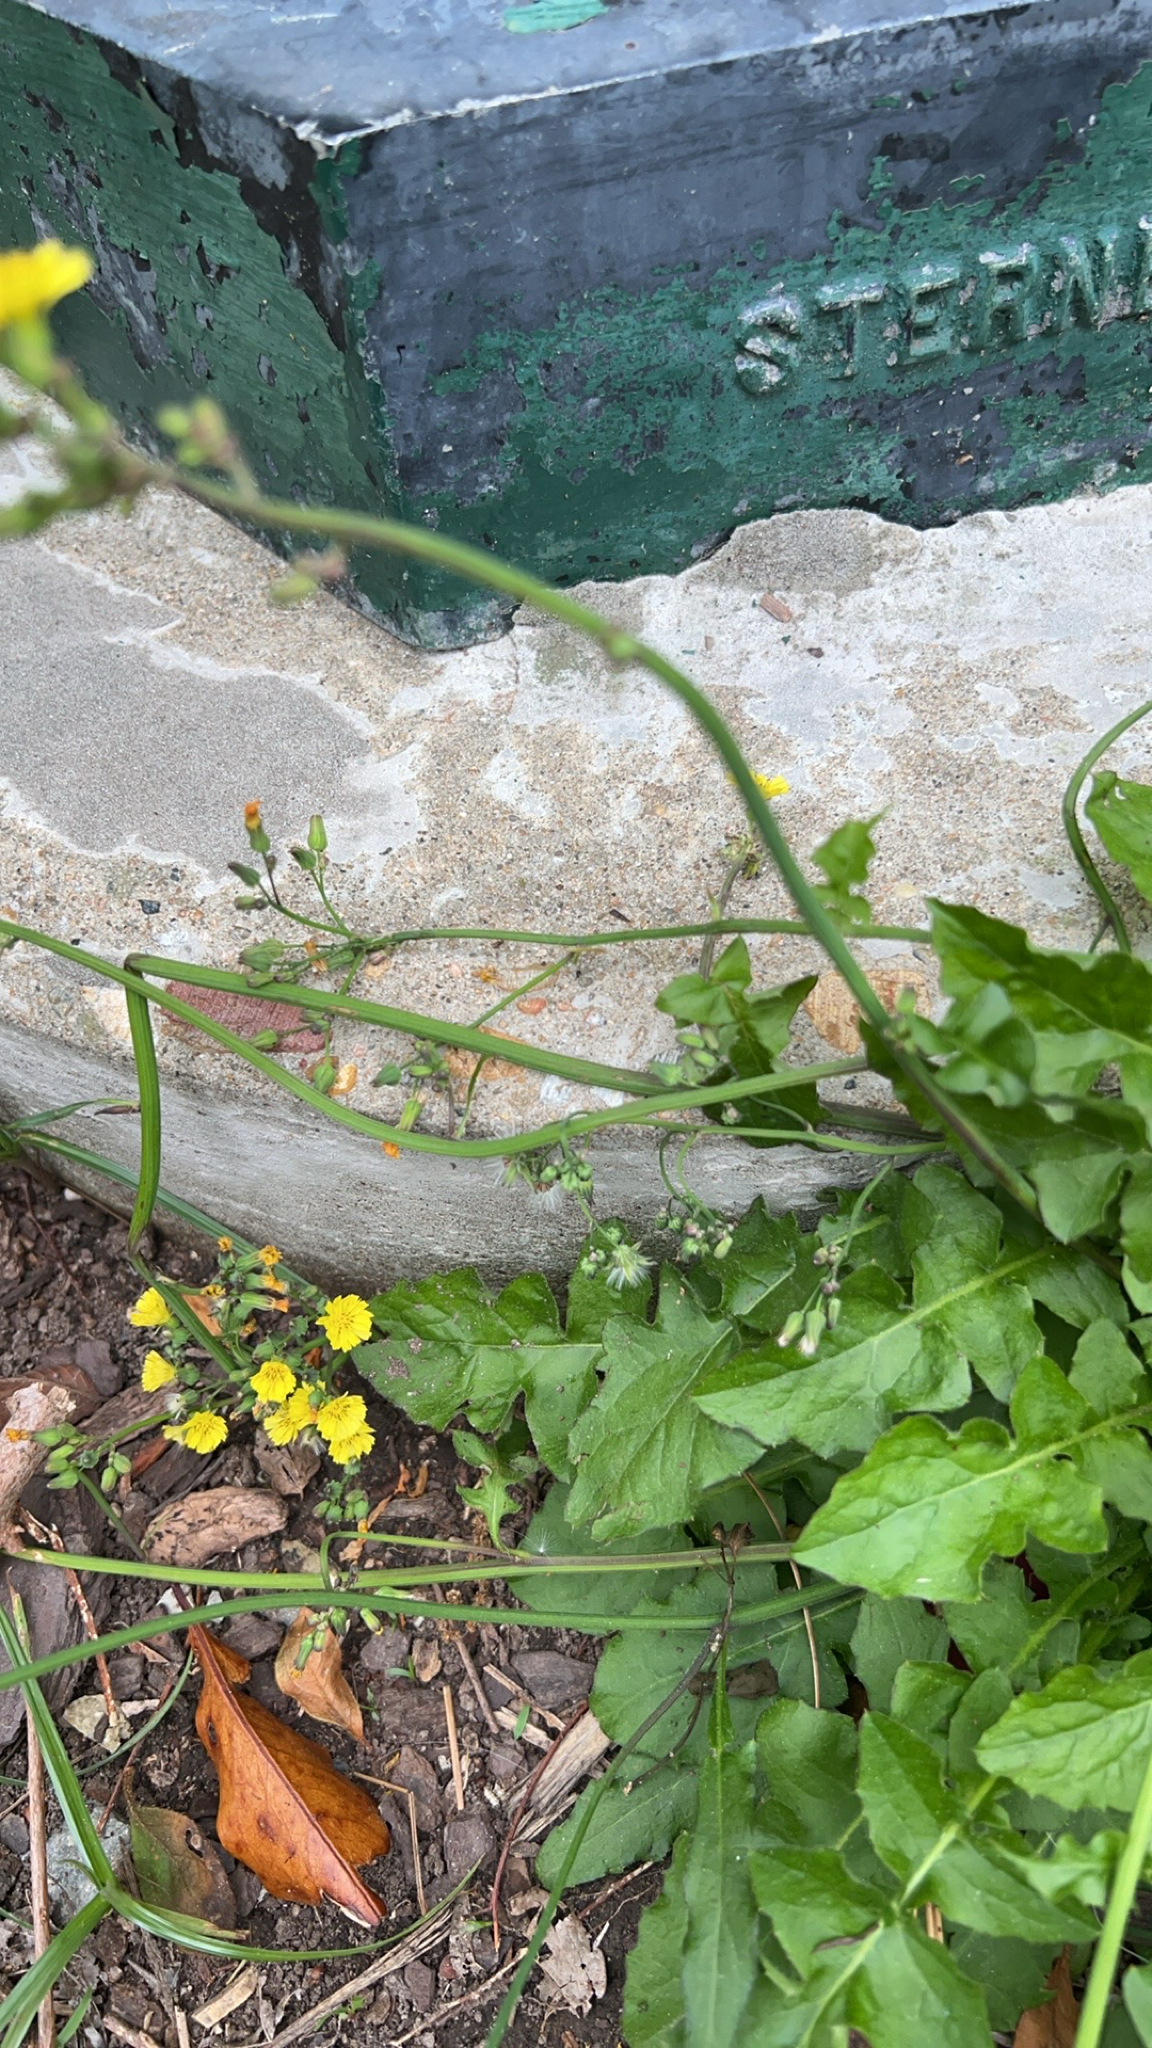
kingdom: Plantae
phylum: Tracheophyta
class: Magnoliopsida
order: Asterales
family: Asteraceae
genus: Youngia
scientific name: Youngia japonica
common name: Oriental false hawksbeard
